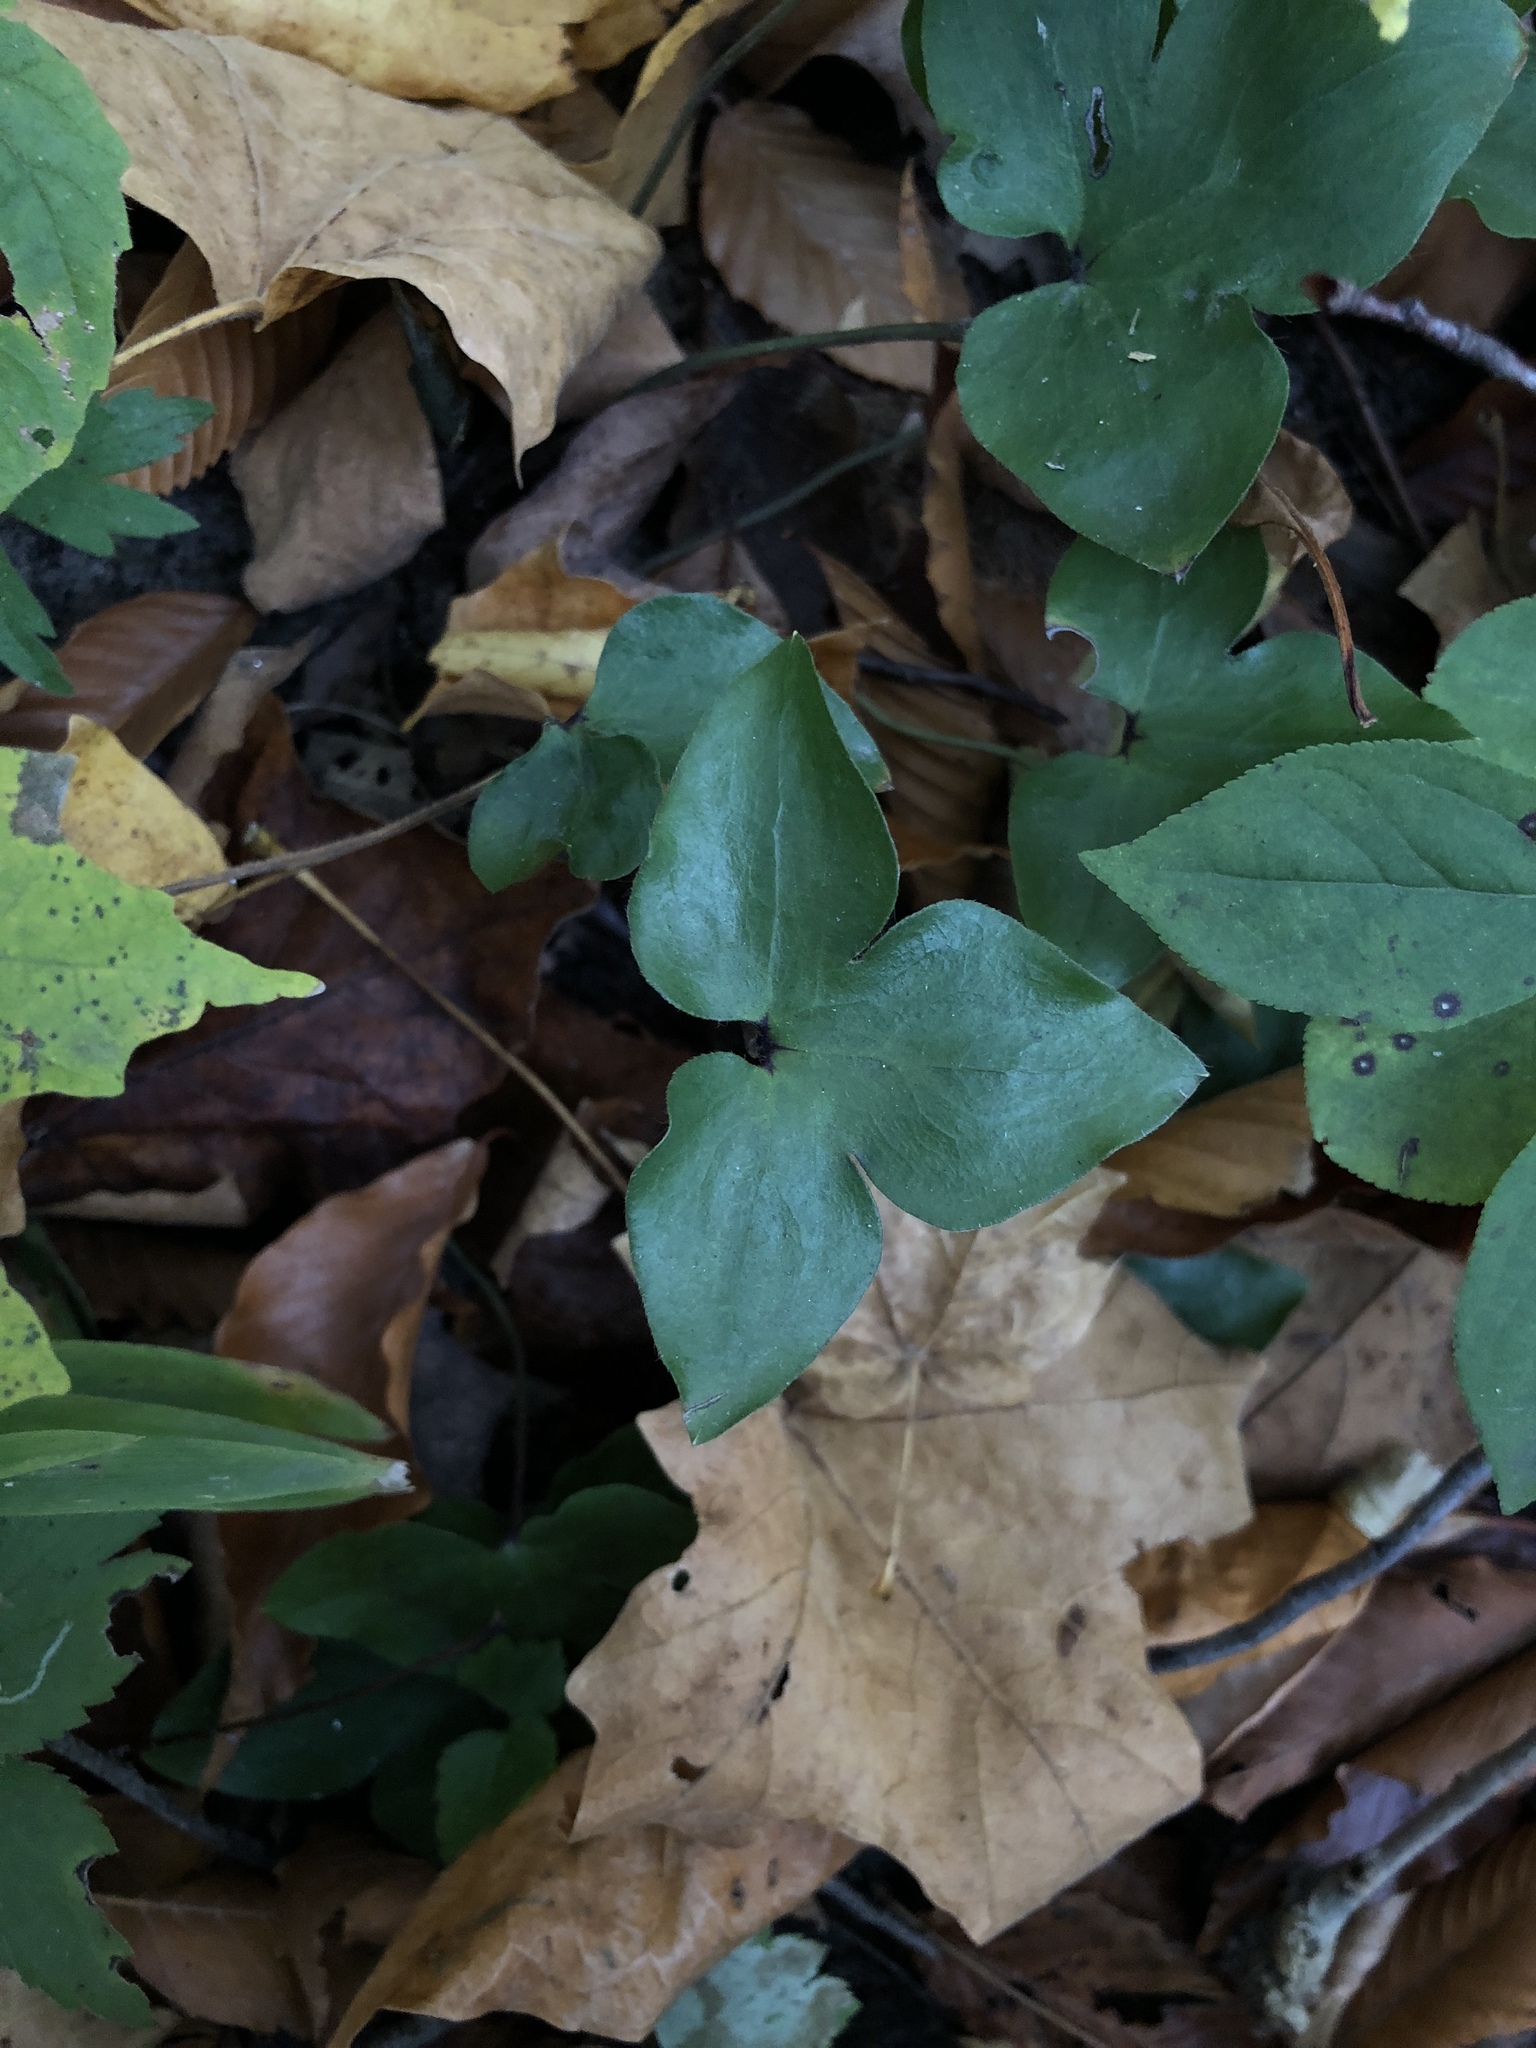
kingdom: Plantae
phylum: Tracheophyta
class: Magnoliopsida
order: Ranunculales
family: Ranunculaceae
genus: Hepatica
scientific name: Hepatica acutiloba
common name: Sharp-lobed hepatica
